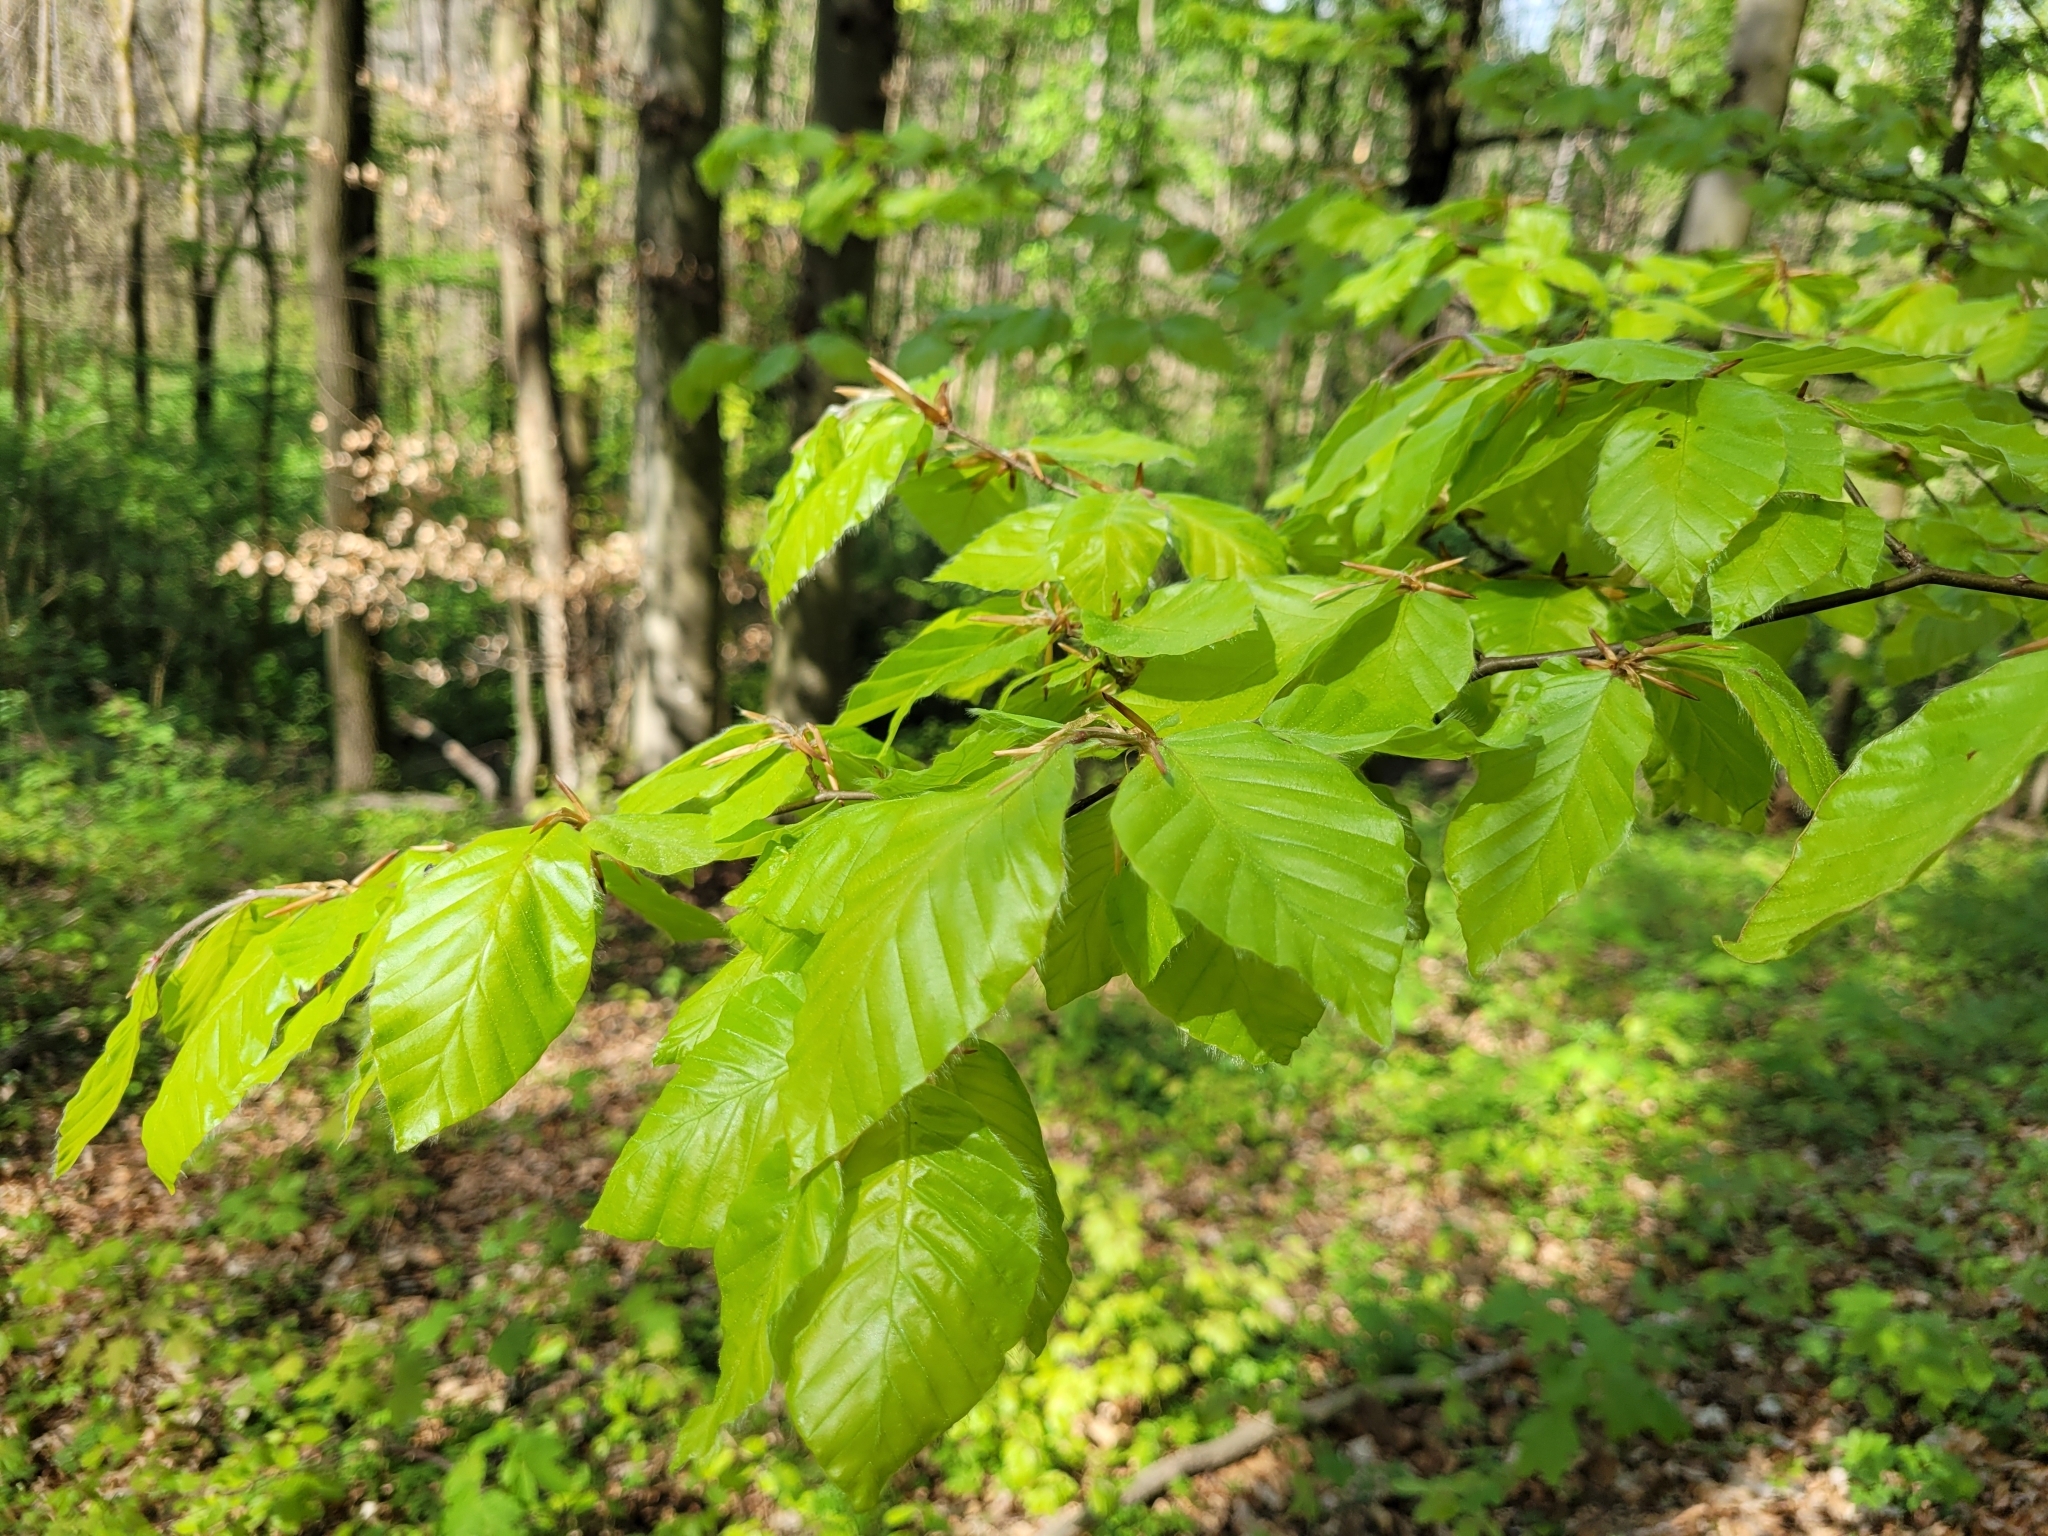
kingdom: Plantae
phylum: Tracheophyta
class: Magnoliopsida
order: Fagales
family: Fagaceae
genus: Fagus
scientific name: Fagus sylvatica
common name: Beech
